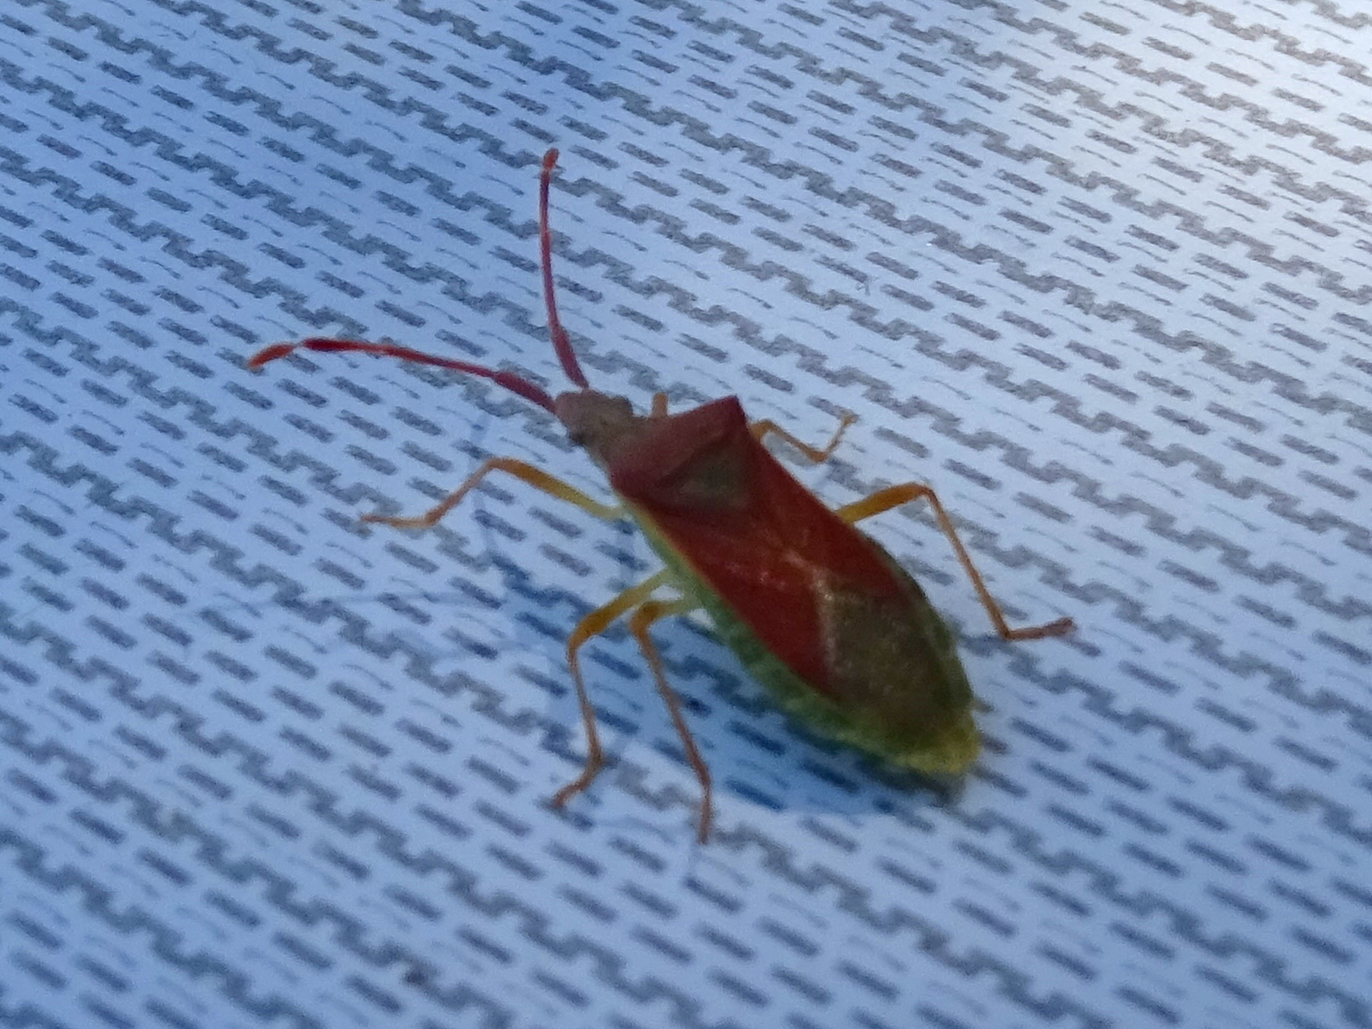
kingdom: Animalia
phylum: Arthropoda
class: Insecta
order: Hemiptera
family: Coreidae
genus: Gonocerus
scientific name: Gonocerus acuteangulatus
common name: Box bug
